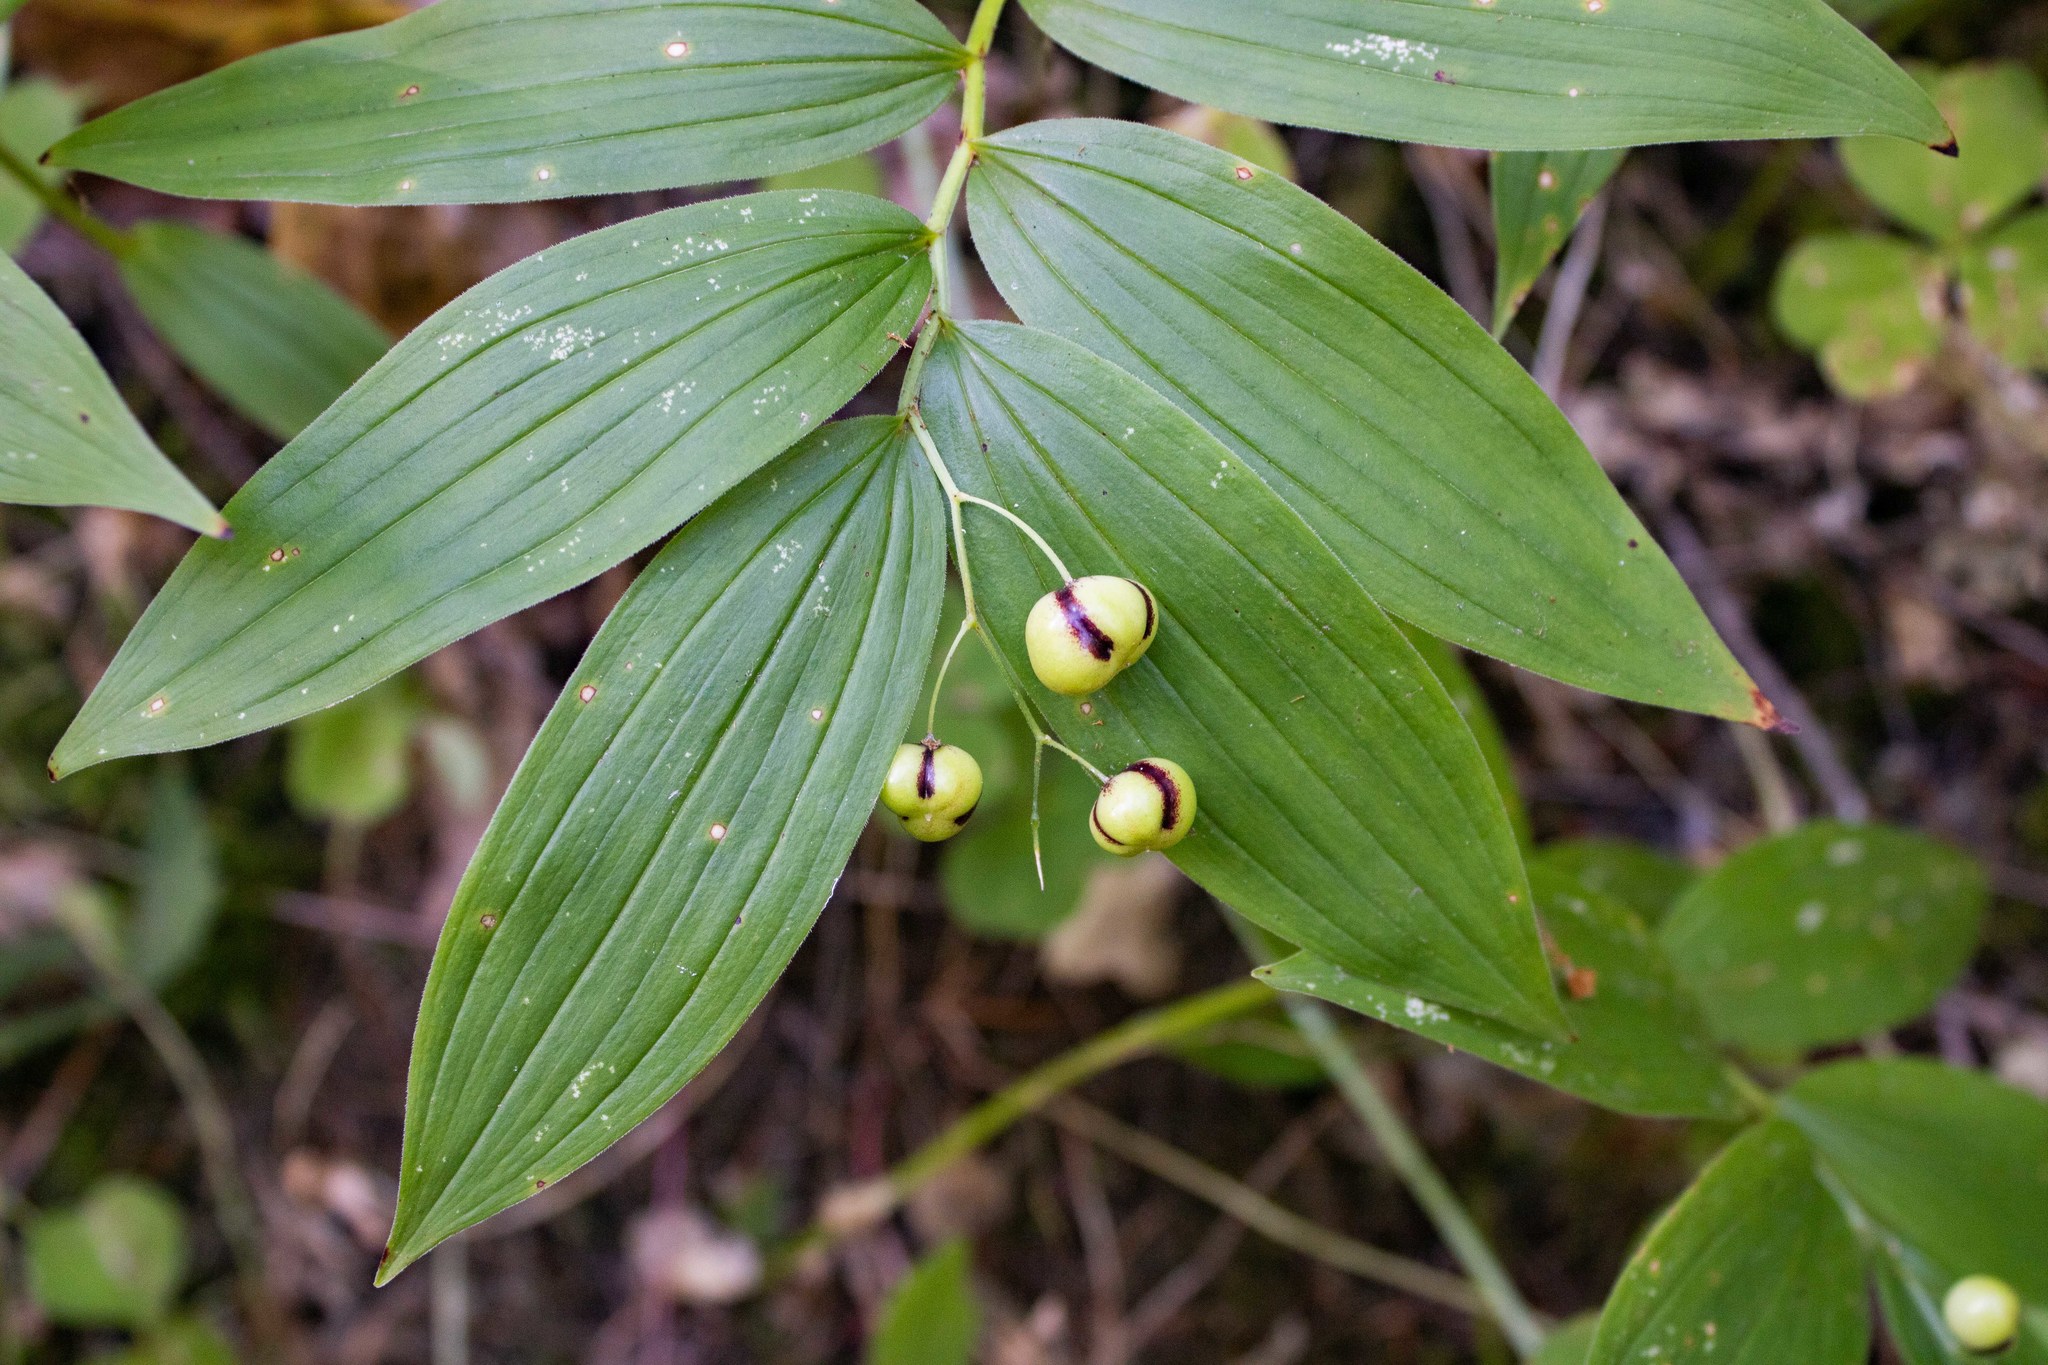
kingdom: Plantae
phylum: Tracheophyta
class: Liliopsida
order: Asparagales
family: Asparagaceae
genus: Maianthemum
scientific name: Maianthemum stellatum
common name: Little false solomon's seal
